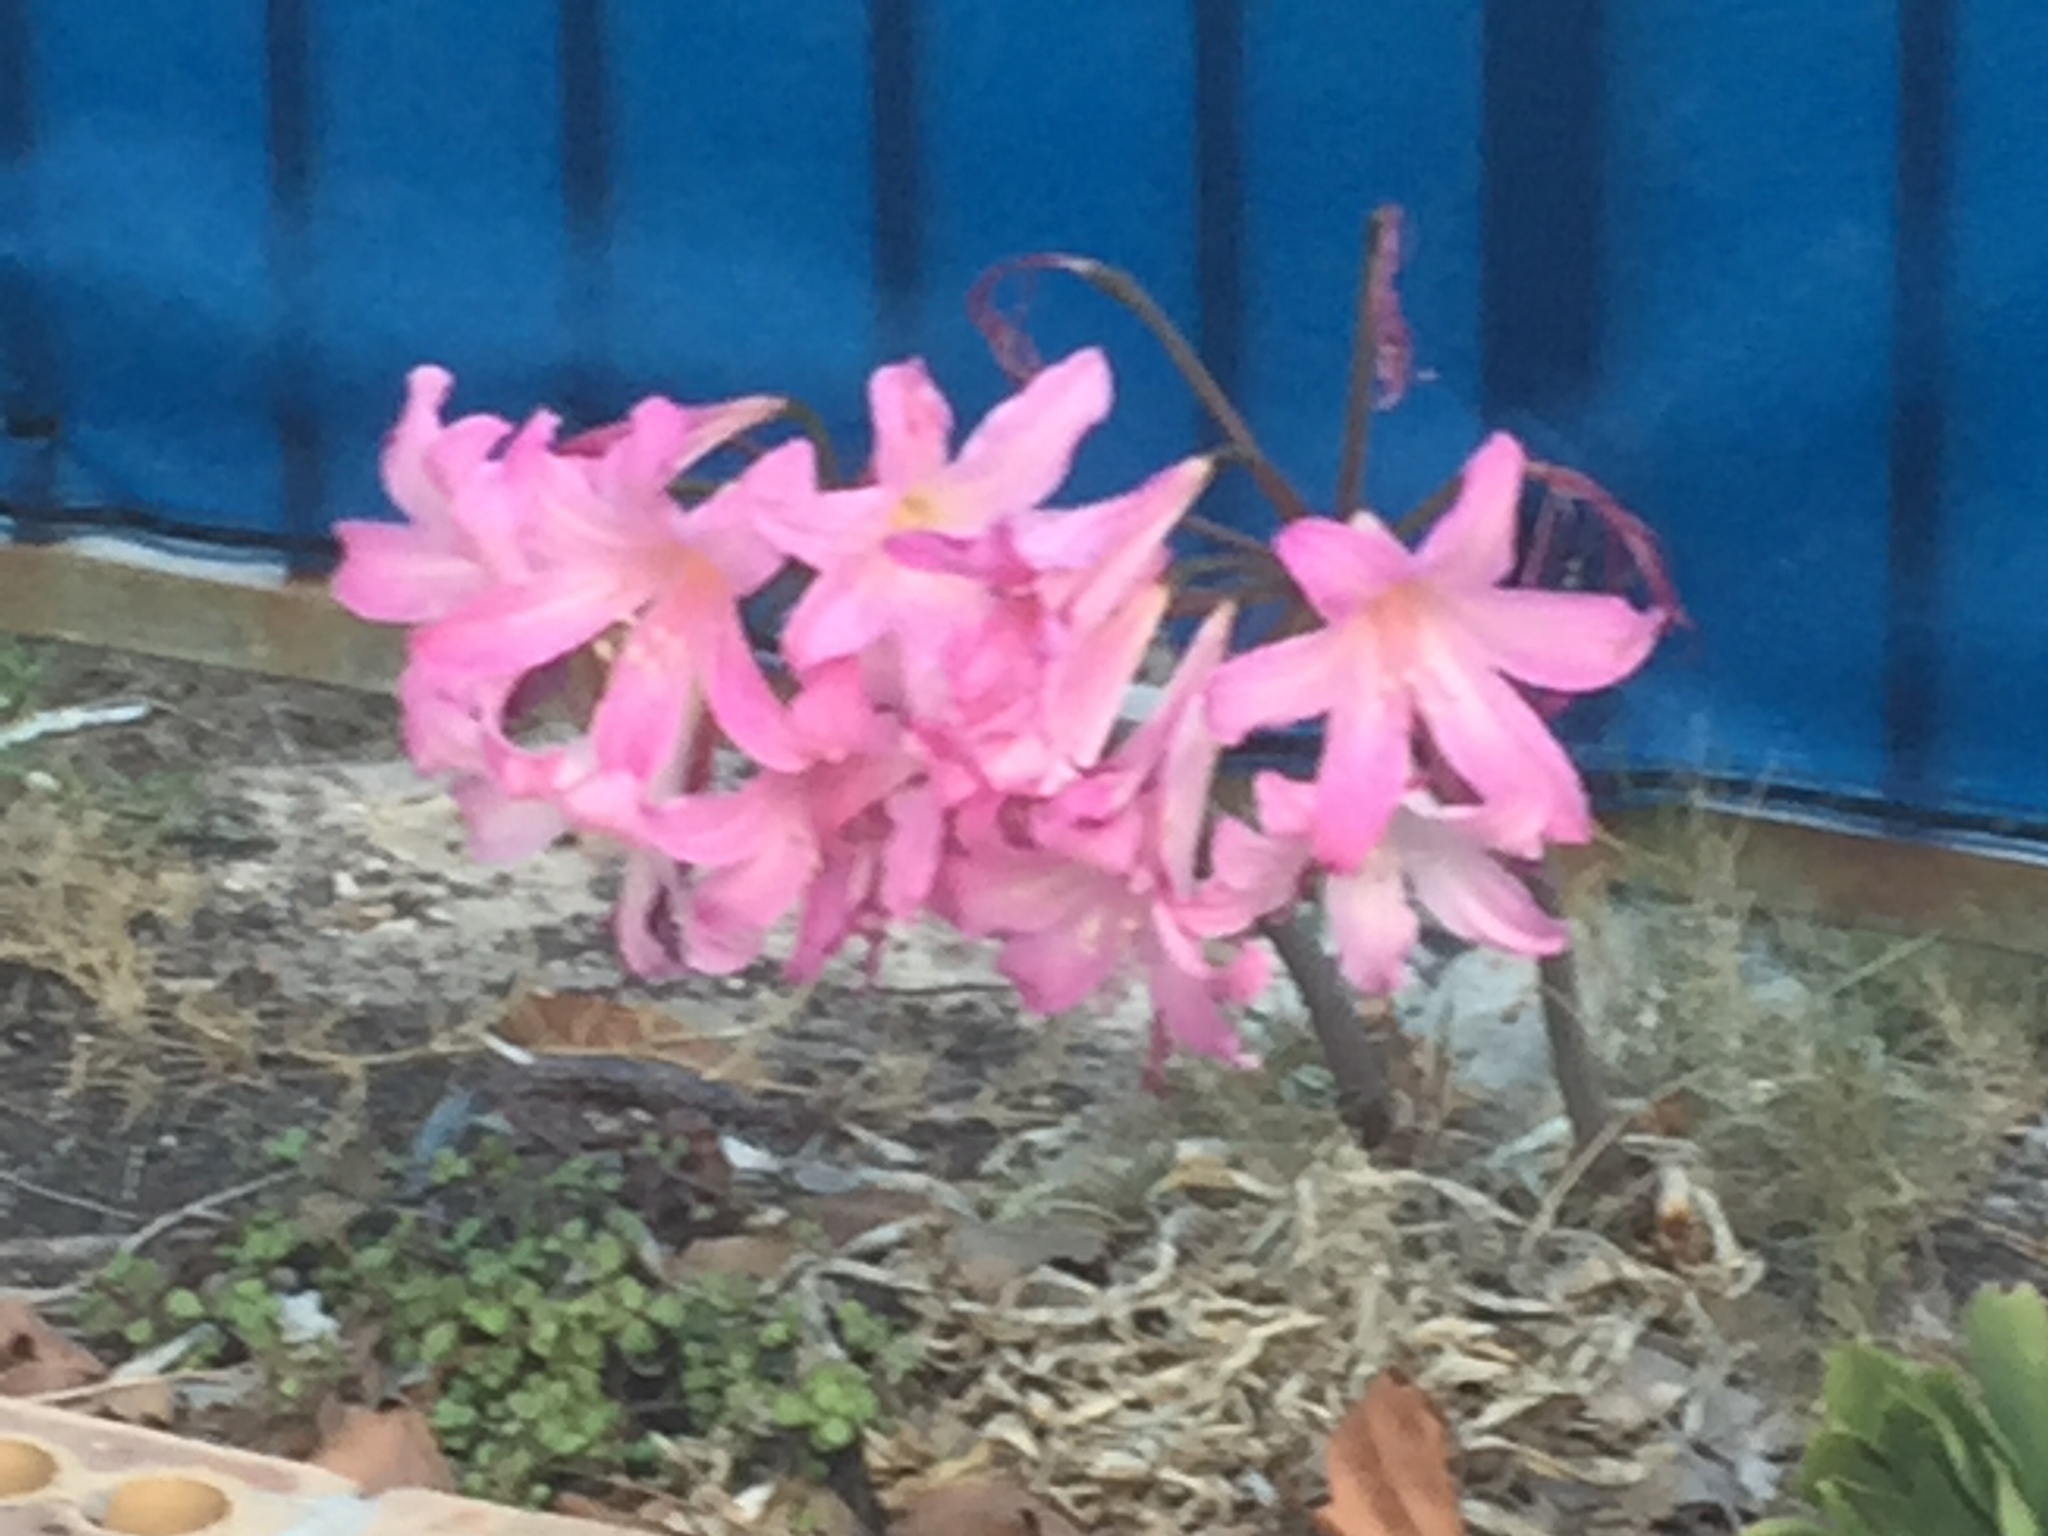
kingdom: Plantae
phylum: Tracheophyta
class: Liliopsida
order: Asparagales
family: Amaryllidaceae
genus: Amaryllis
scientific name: Amaryllis belladonna
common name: Jersey lily
